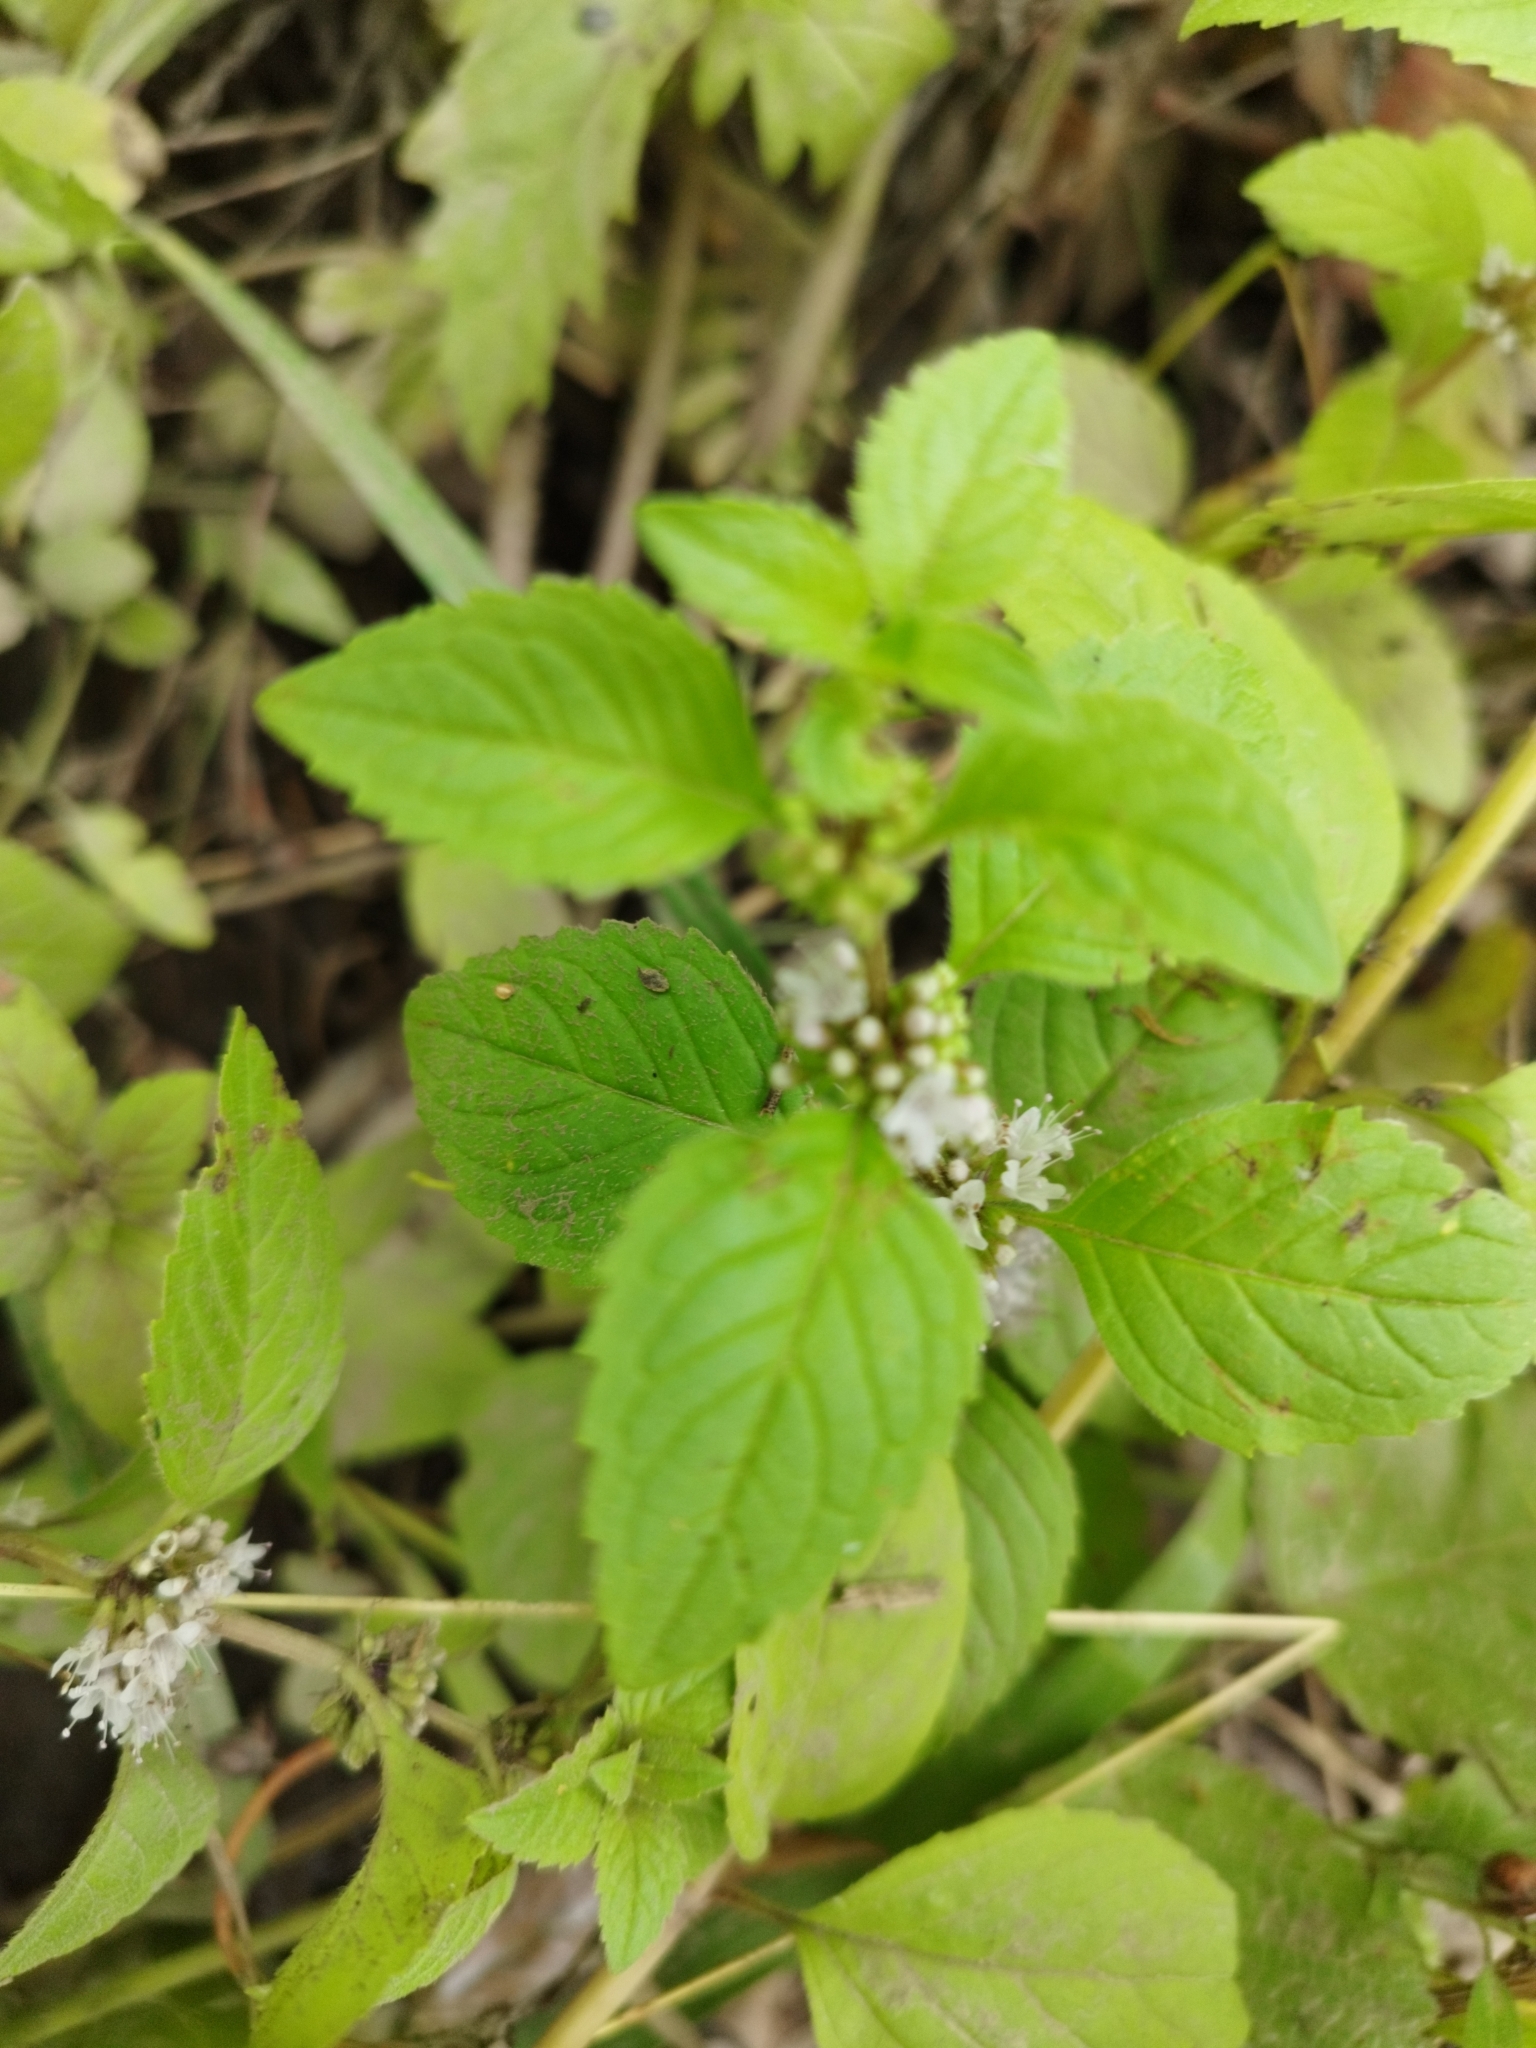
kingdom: Plantae
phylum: Tracheophyta
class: Magnoliopsida
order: Lamiales
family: Lamiaceae
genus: Mentha
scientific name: Mentha arvensis
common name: Corn mint
